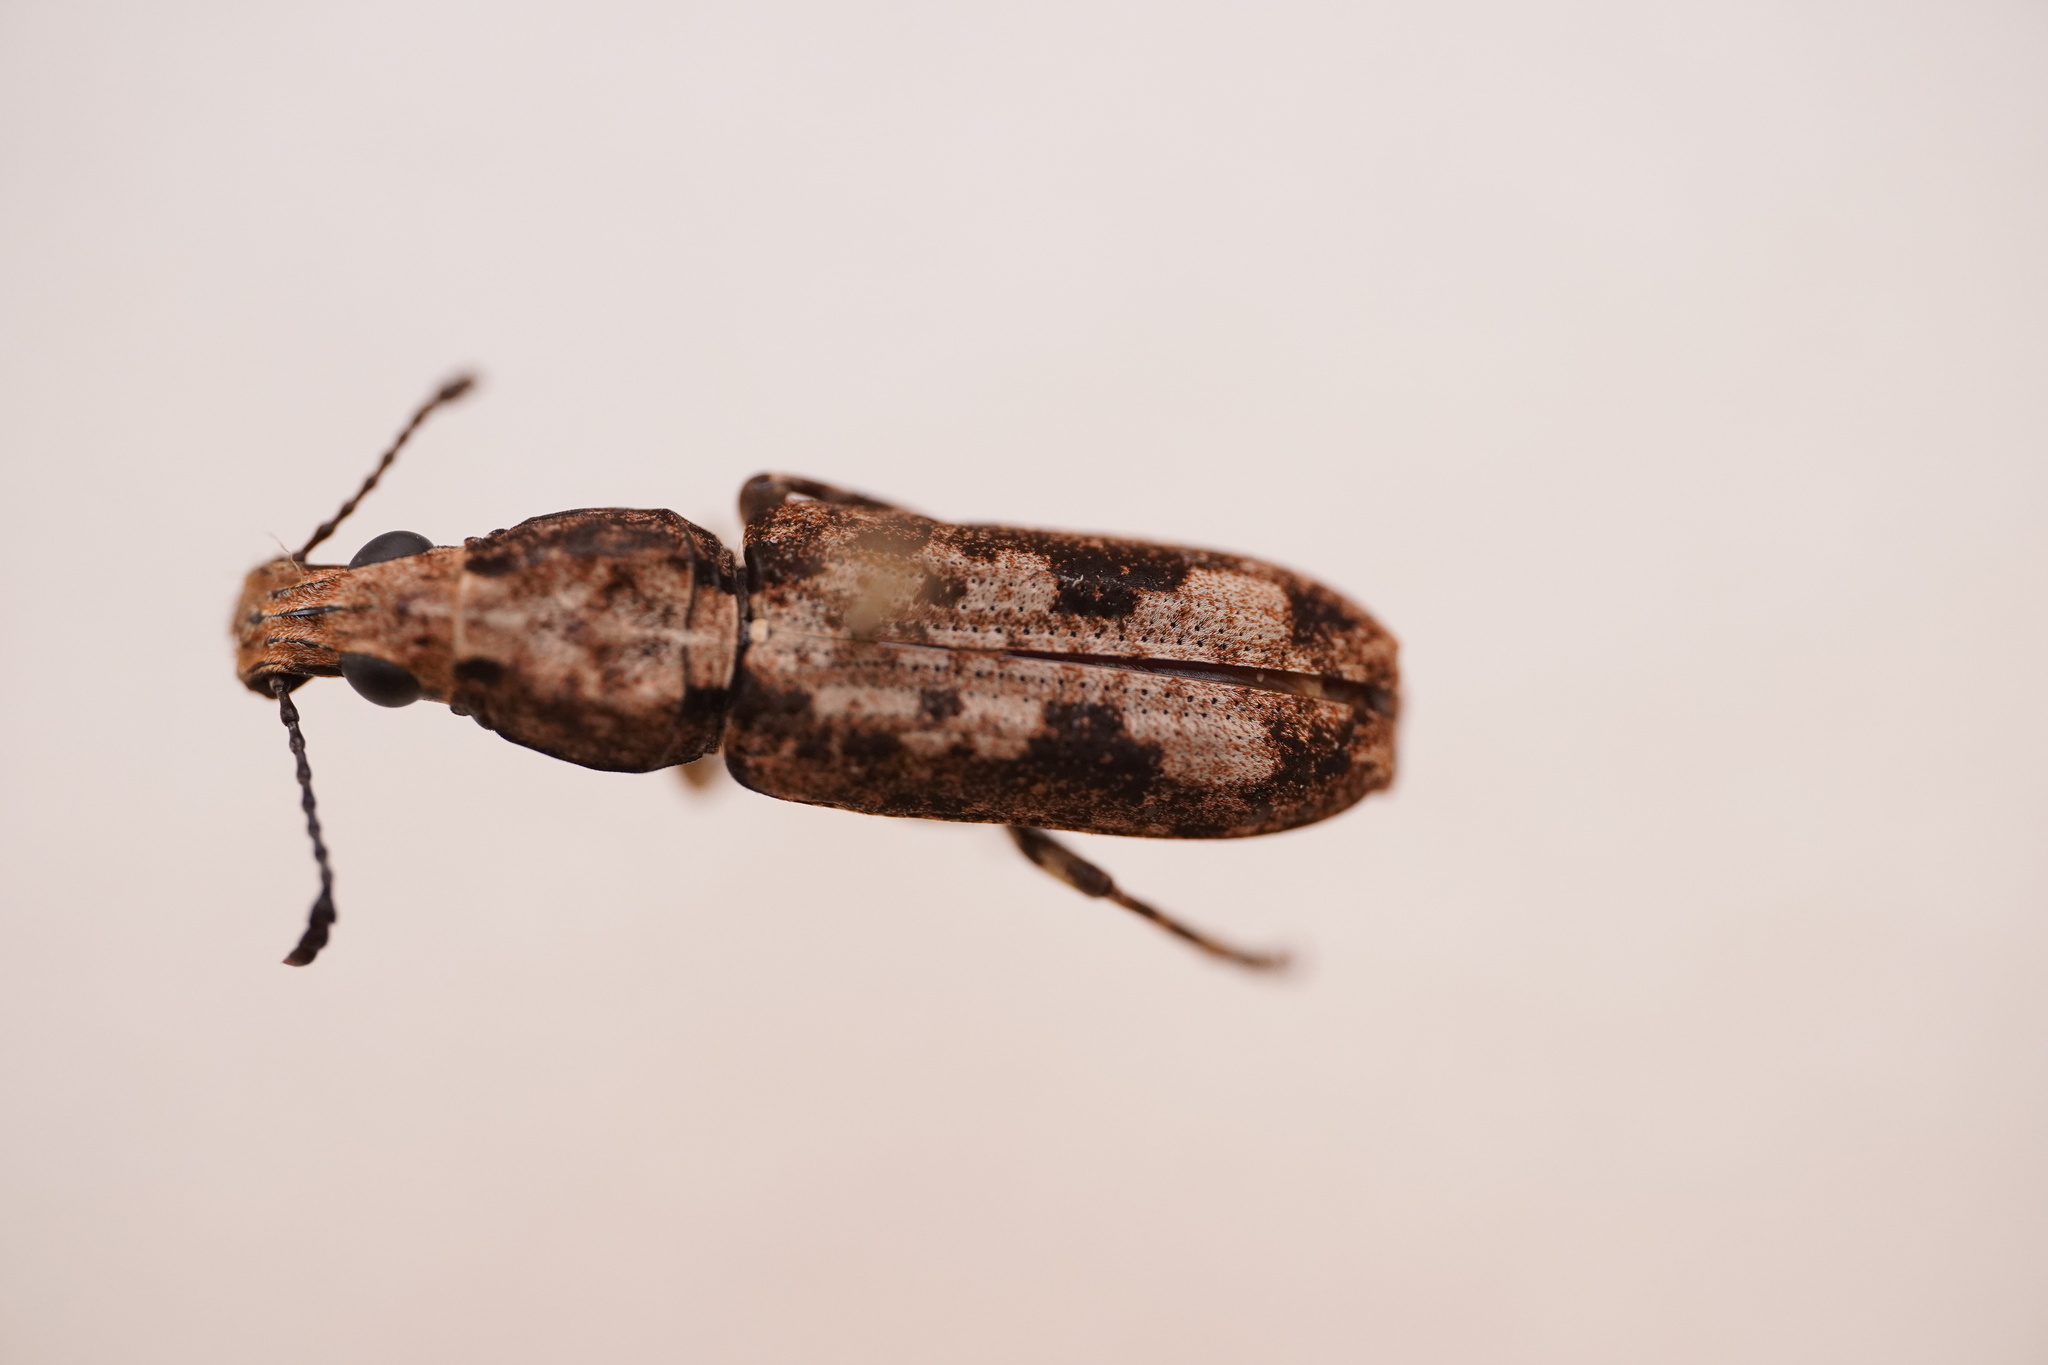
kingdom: Animalia
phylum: Arthropoda
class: Insecta
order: Coleoptera
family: Anthribidae
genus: Ptychoderes
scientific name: Ptychoderes nebulosus
